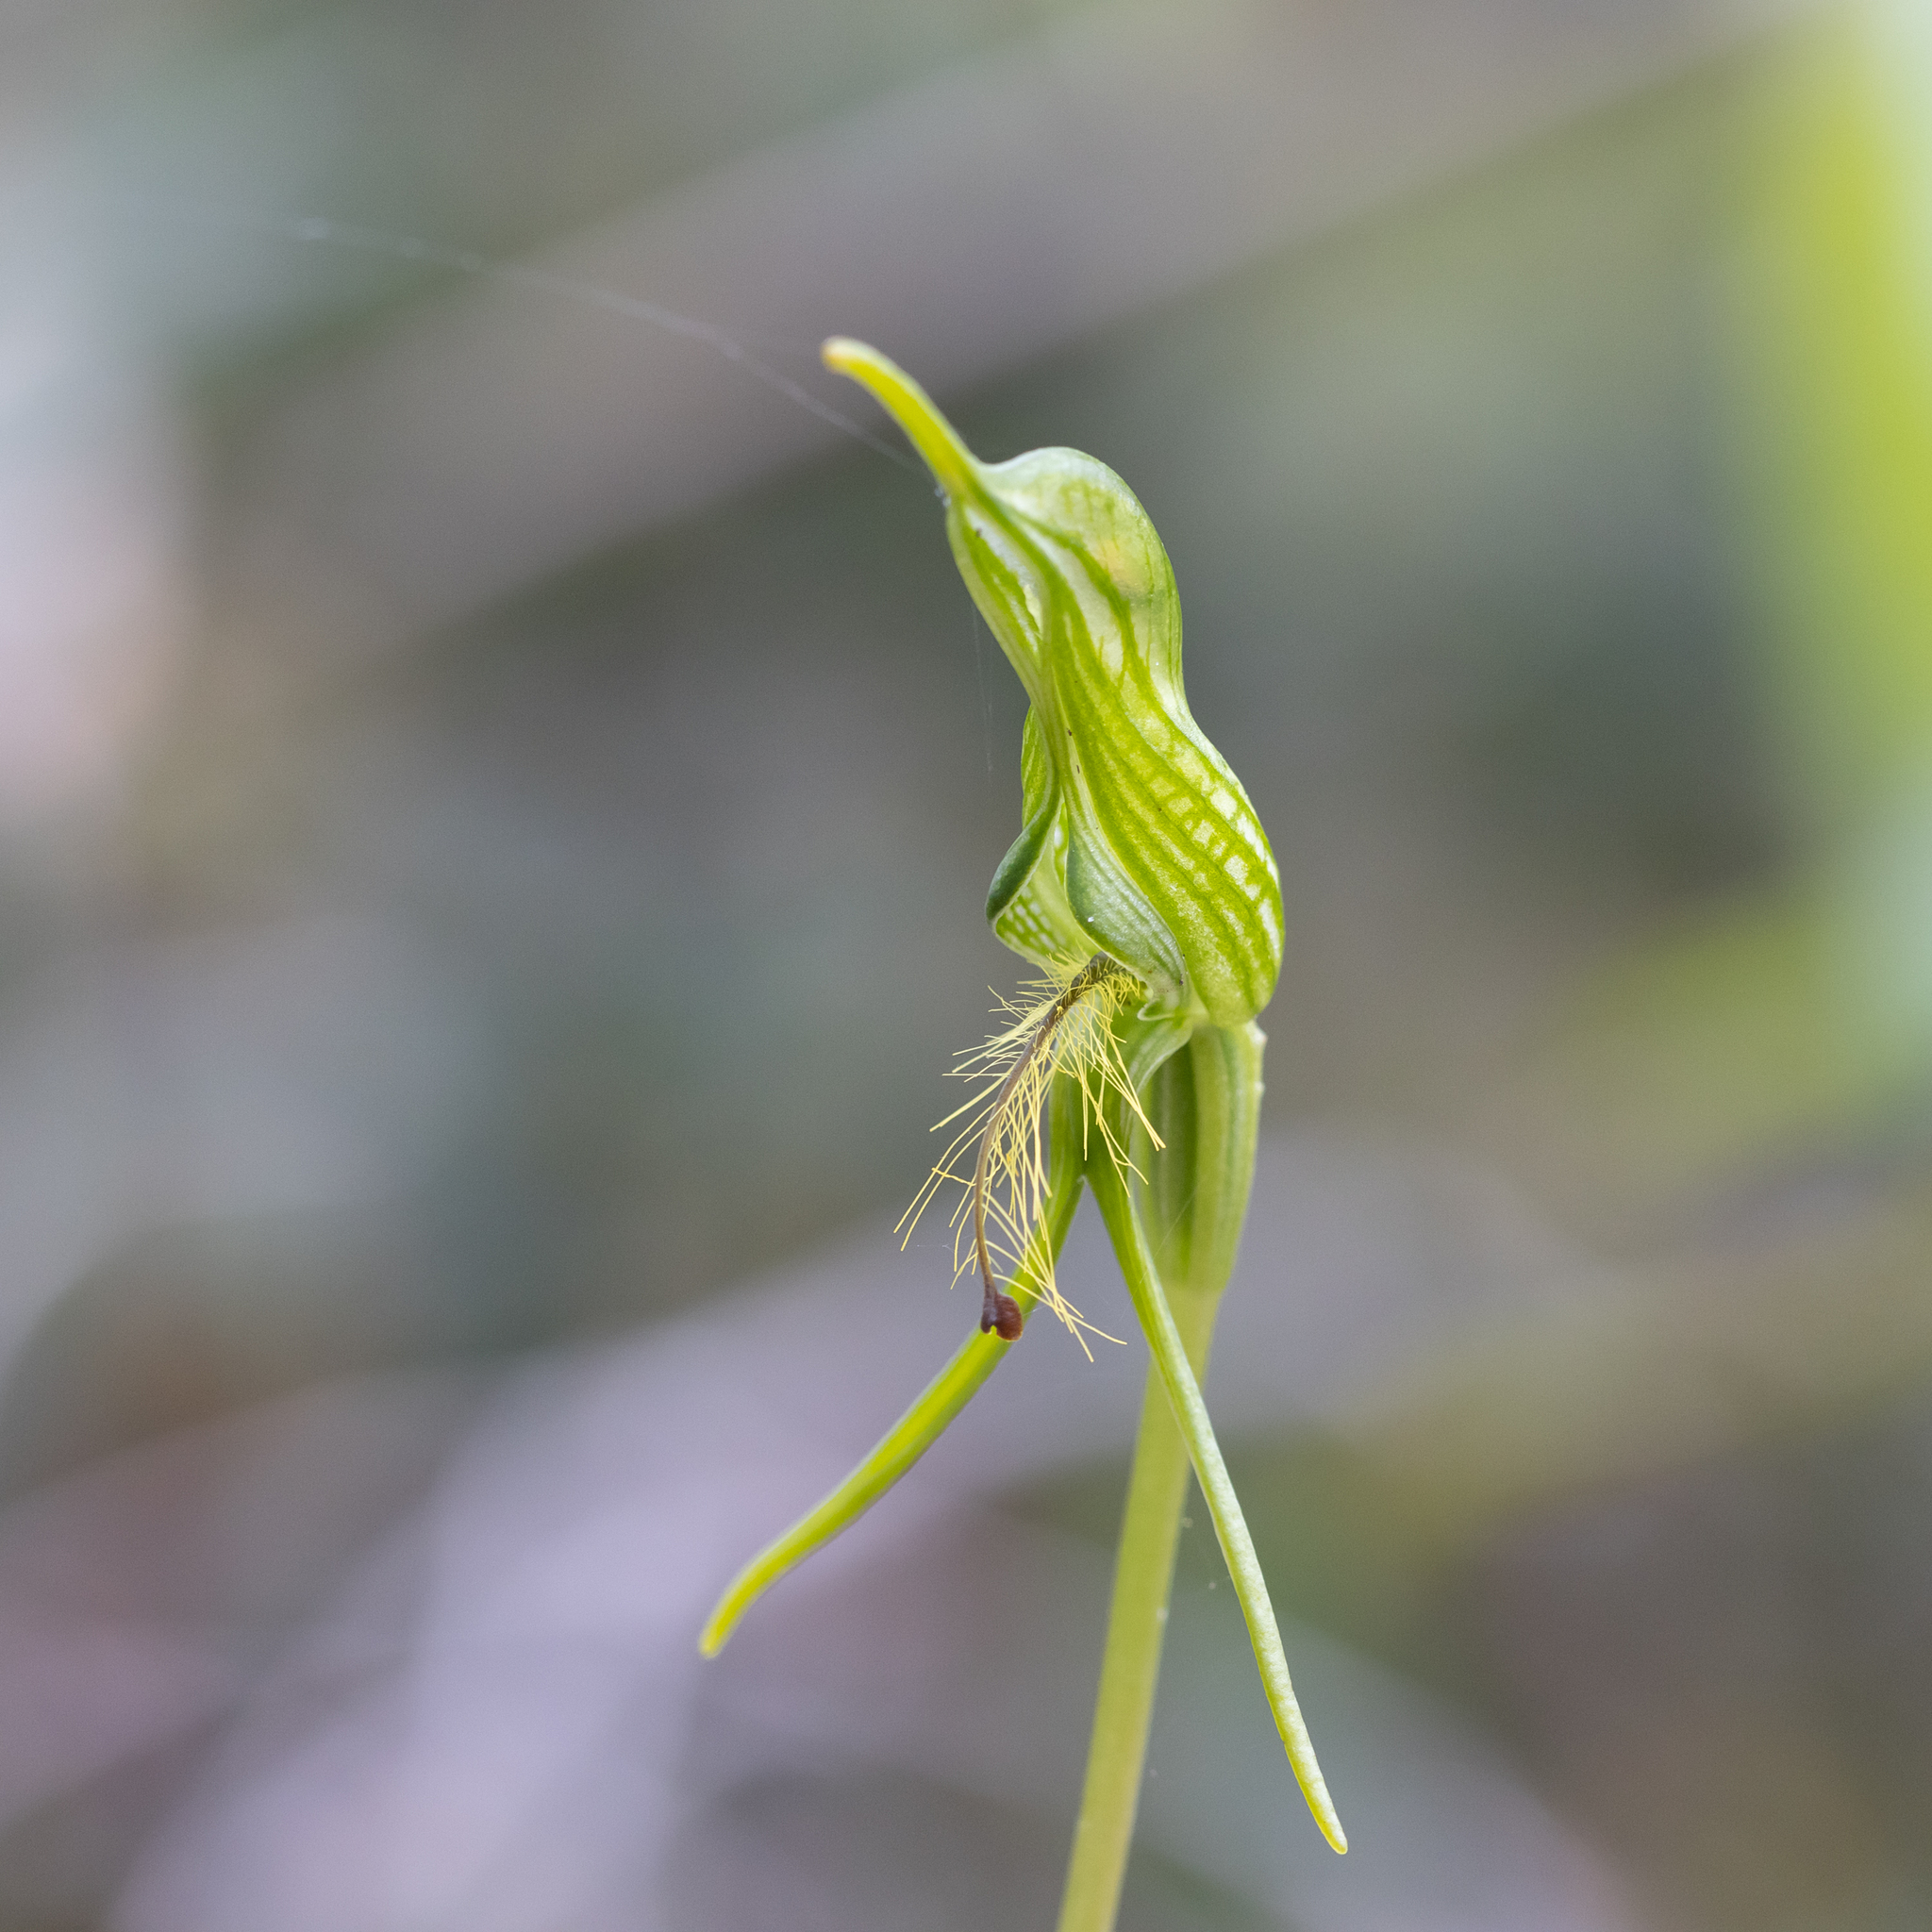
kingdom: Plantae
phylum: Tracheophyta
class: Liliopsida
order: Asparagales
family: Orchidaceae
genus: Pterostylis
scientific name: Pterostylis turfosa
